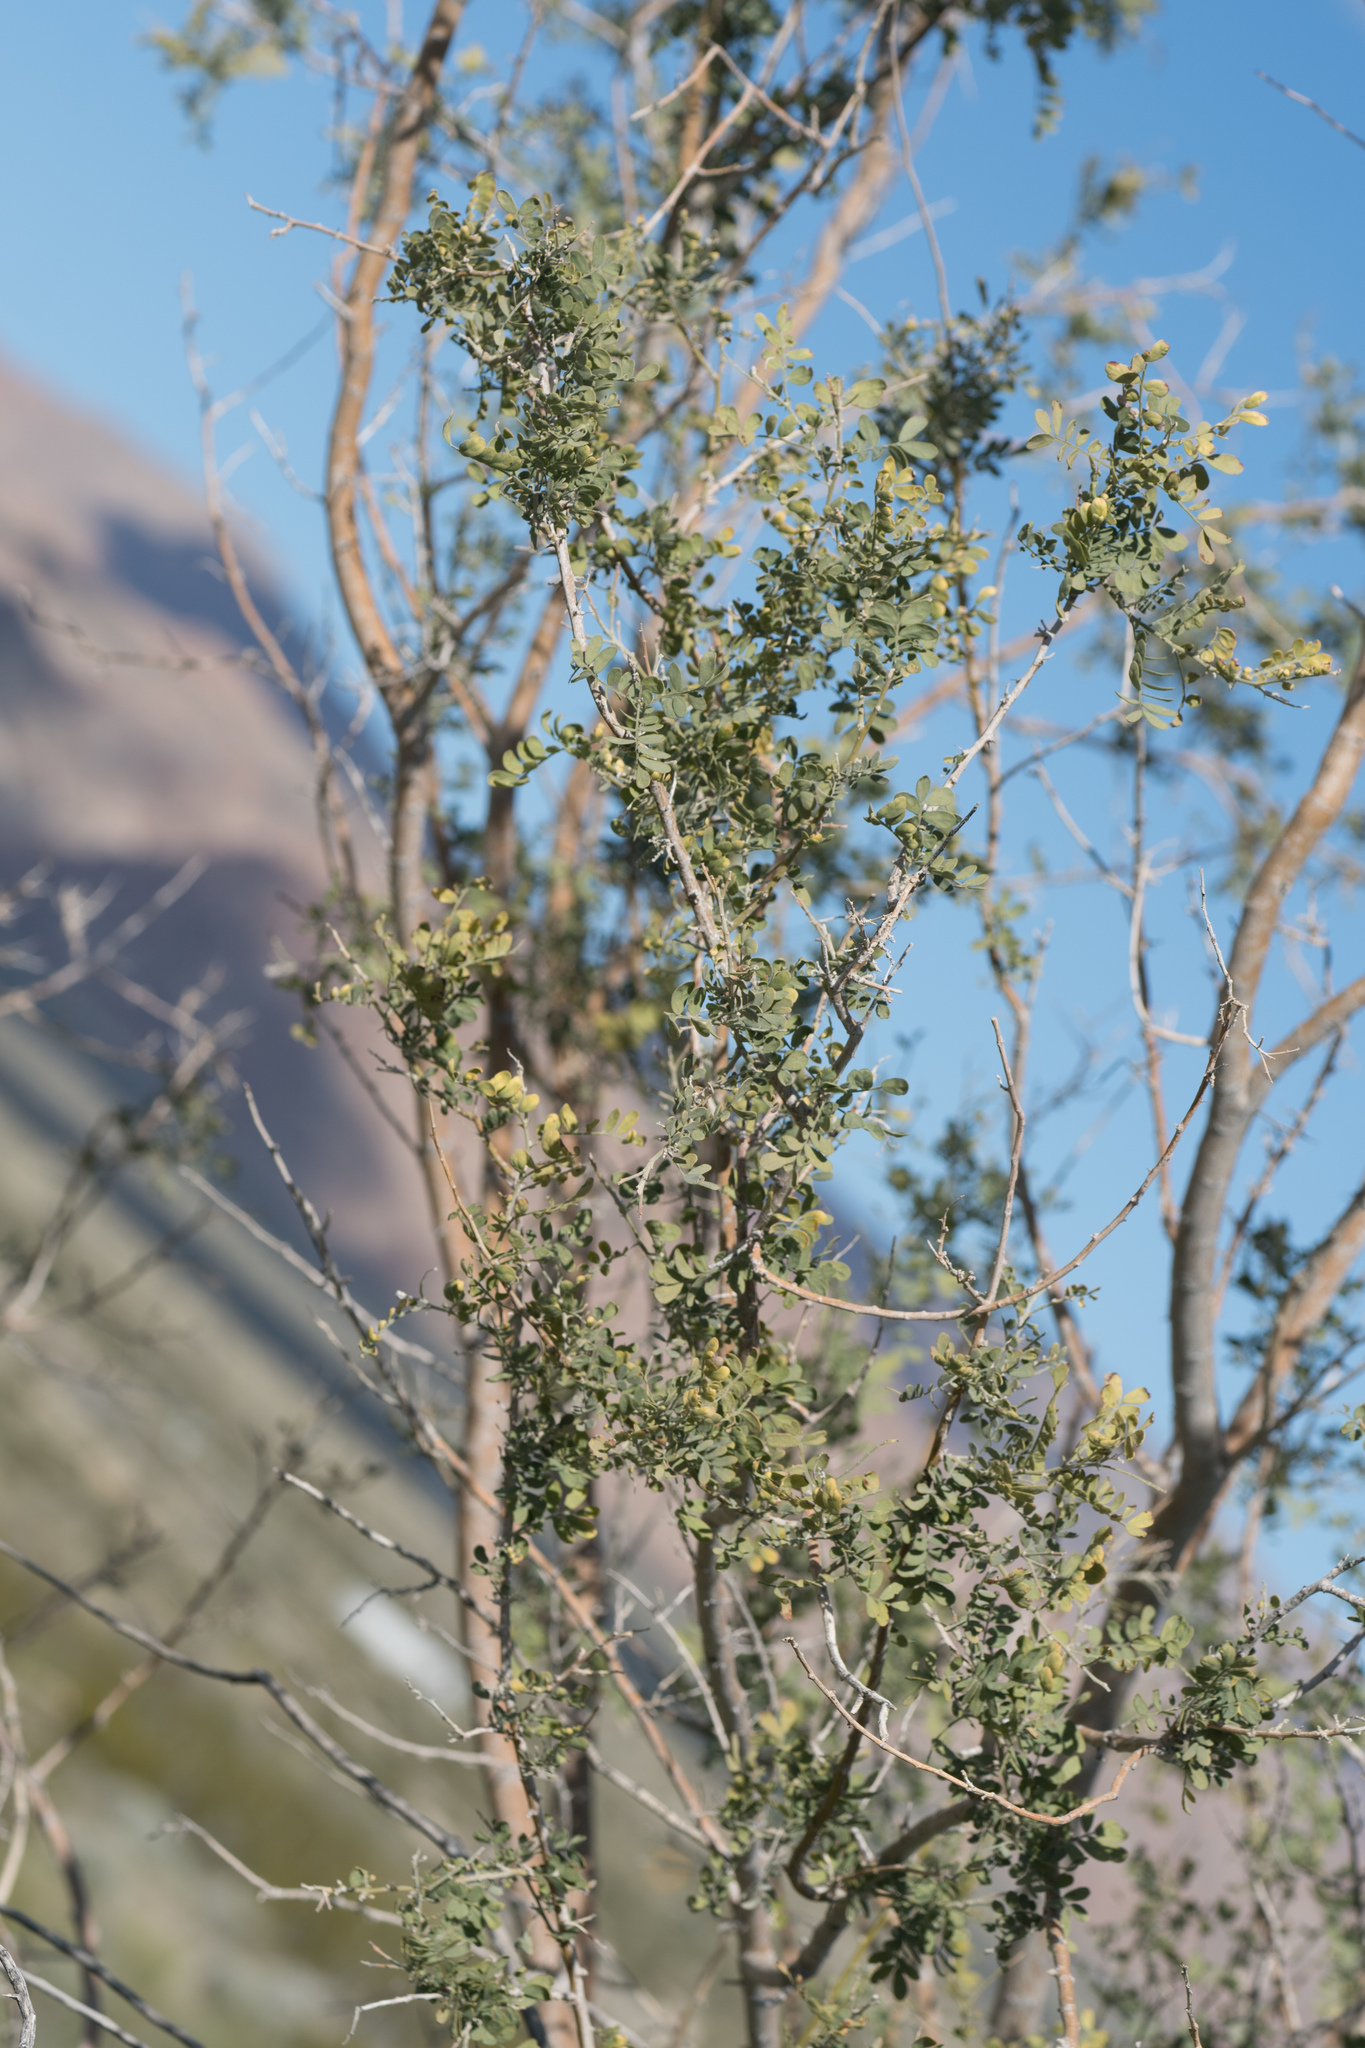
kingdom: Plantae
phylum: Tracheophyta
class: Magnoliopsida
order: Fabales
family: Fabaceae
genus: Olneya
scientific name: Olneya tesota
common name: Desert ironwood
